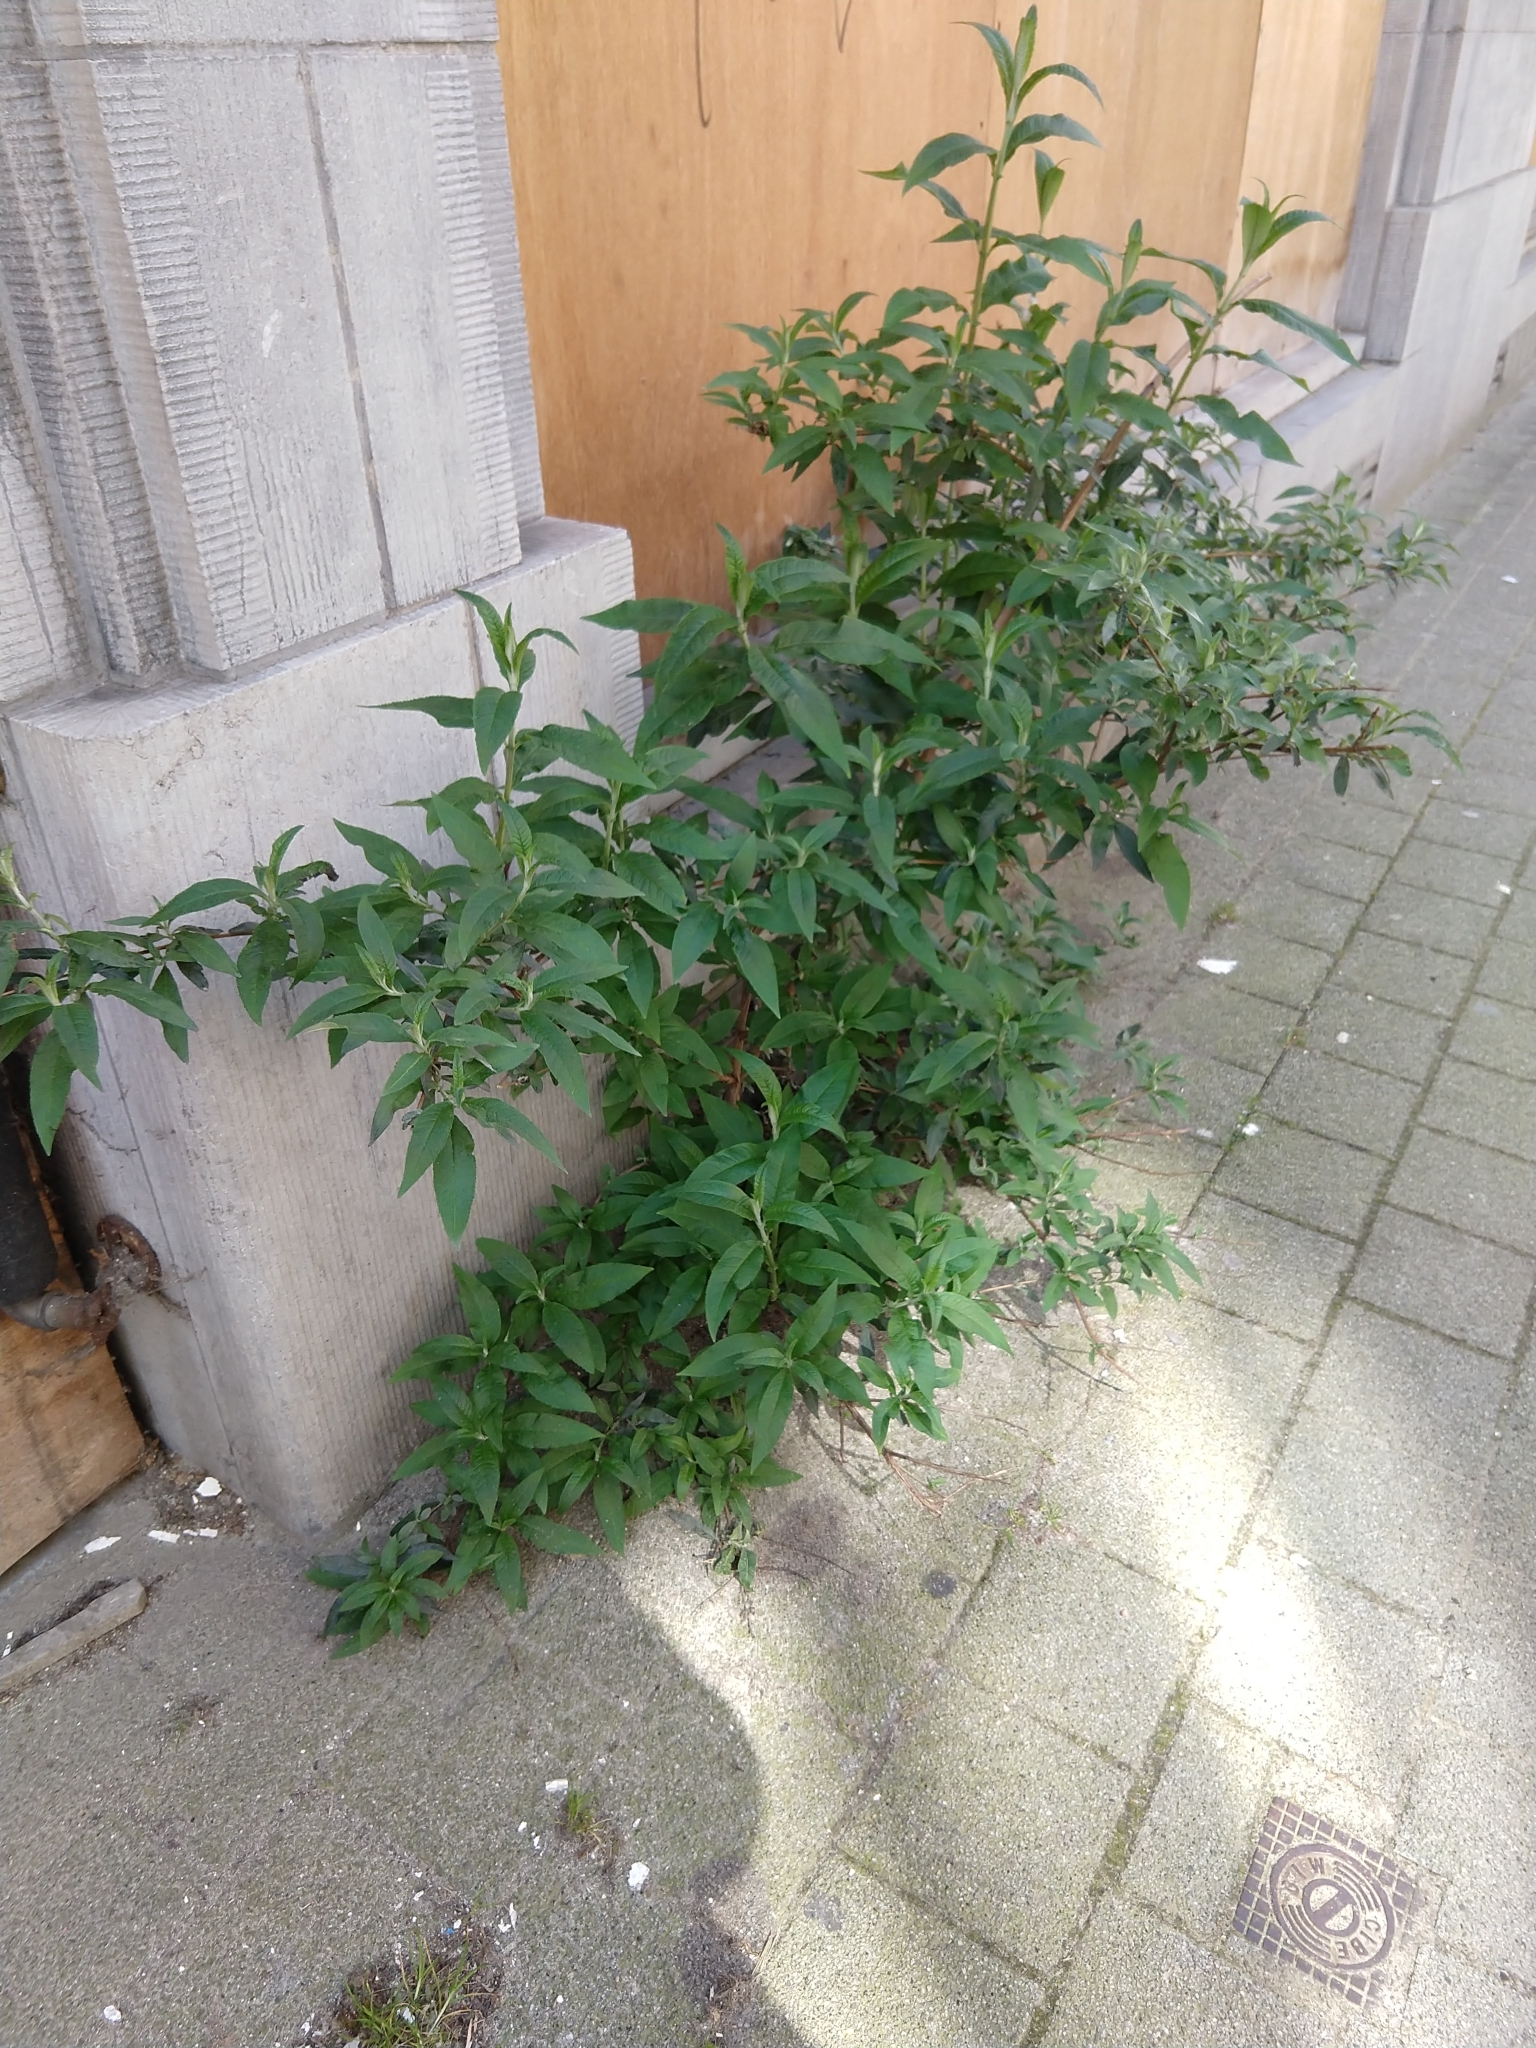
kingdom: Plantae
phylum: Tracheophyta
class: Magnoliopsida
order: Lamiales
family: Scrophulariaceae
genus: Buddleja
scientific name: Buddleja davidii
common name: Butterfly-bush
